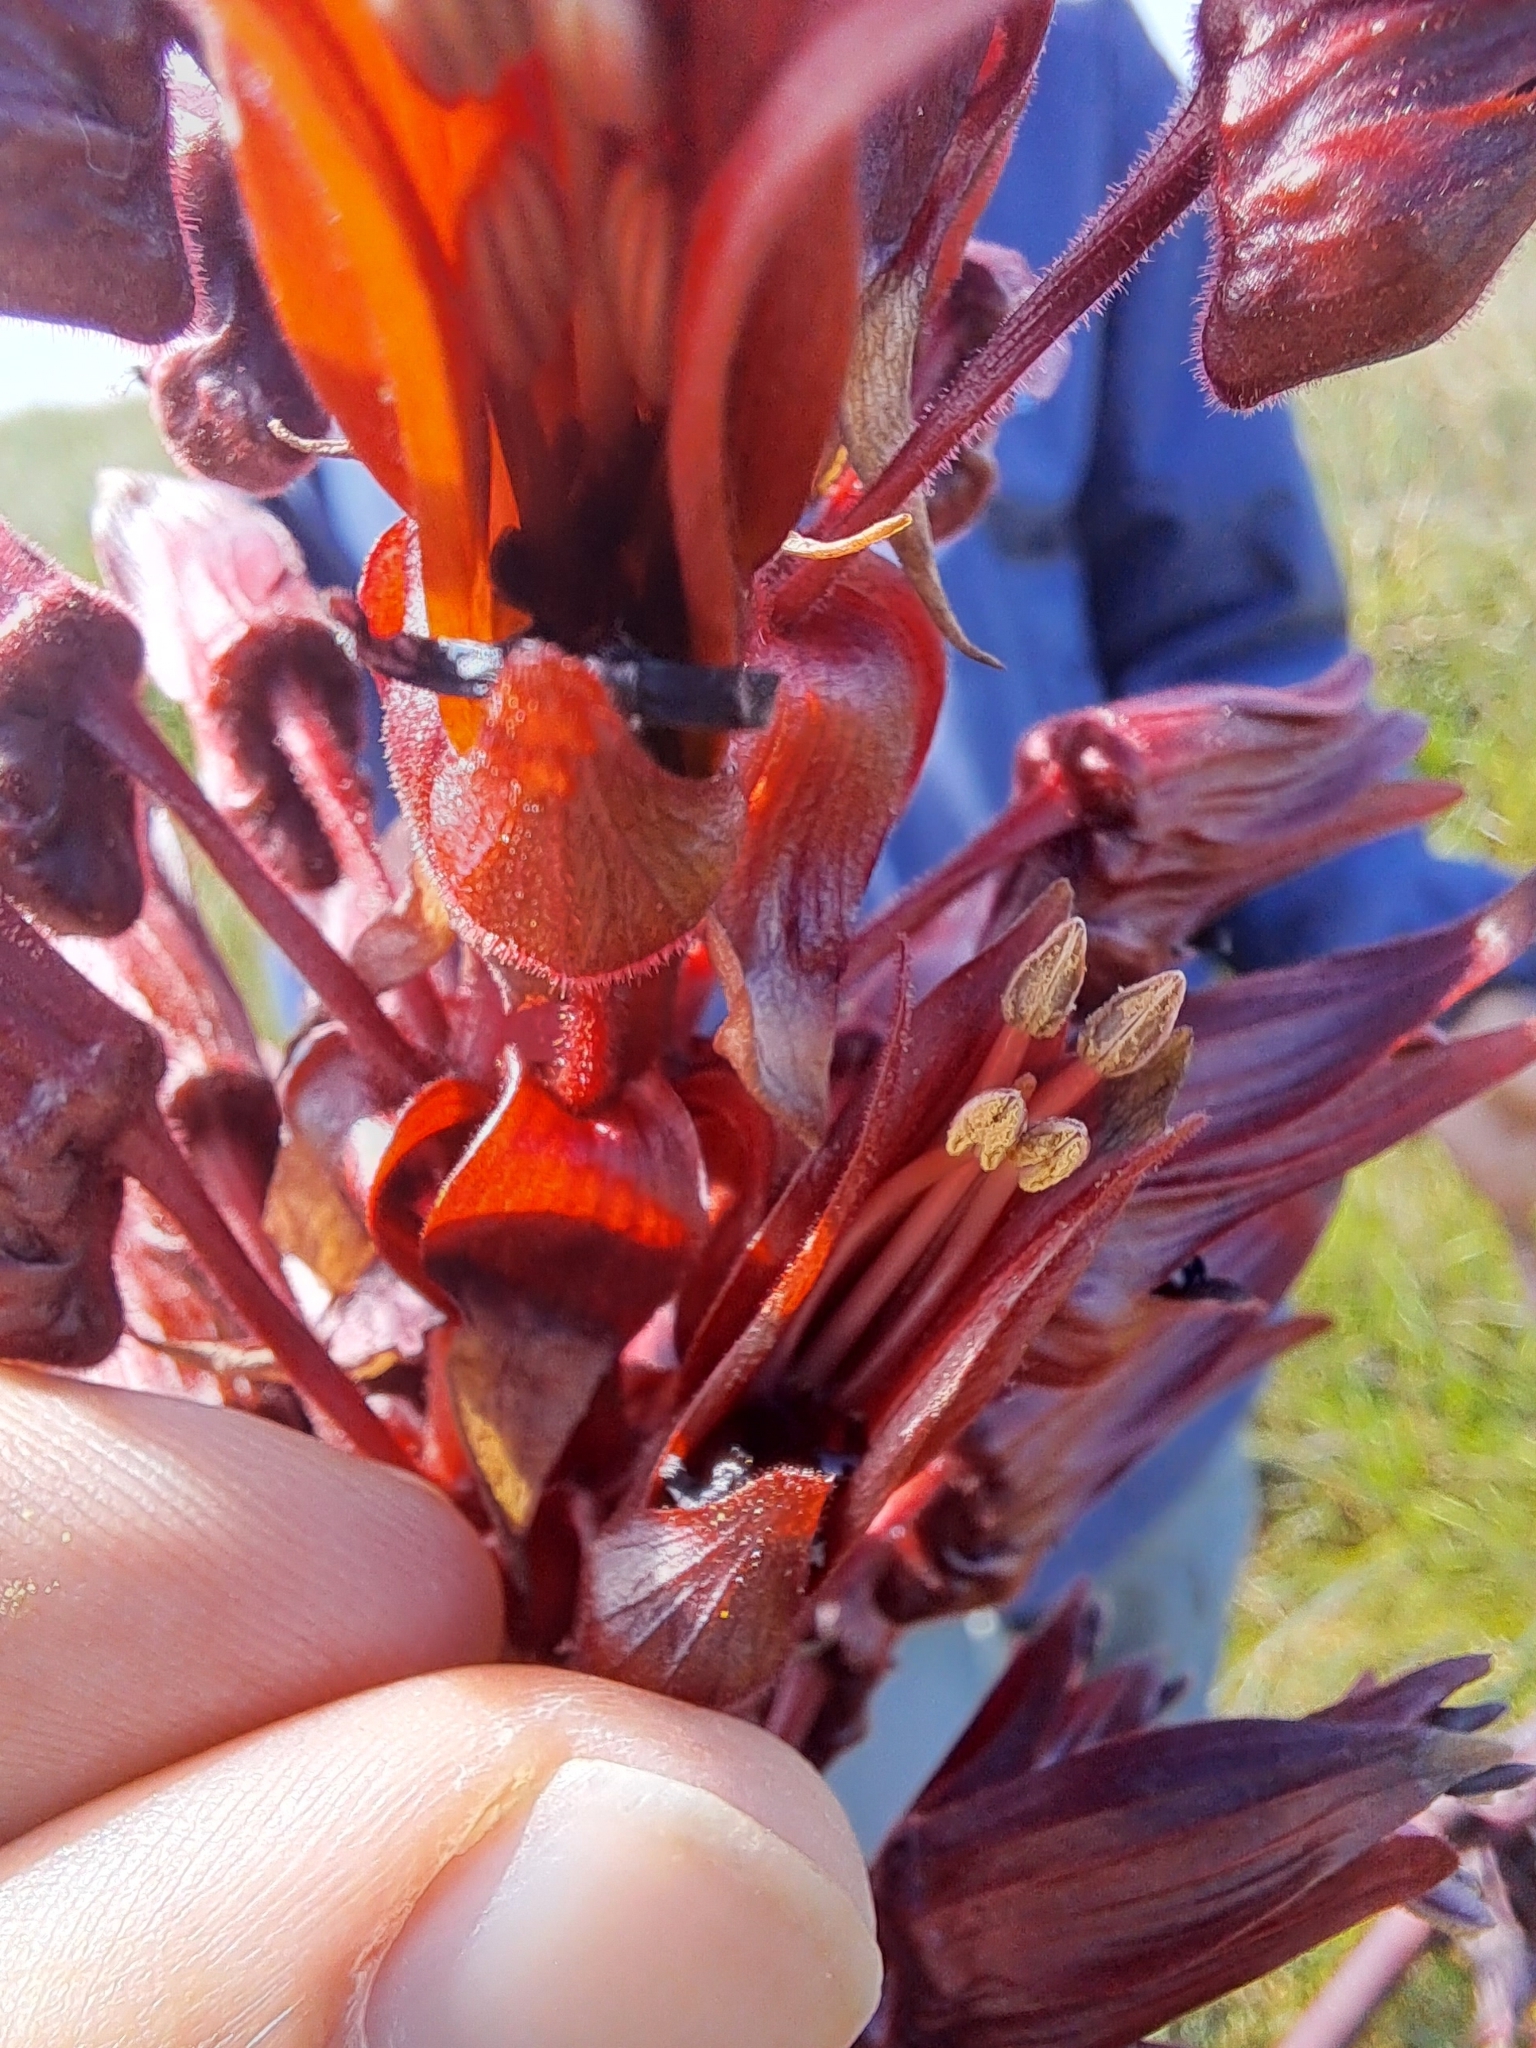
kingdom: Plantae
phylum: Tracheophyta
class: Magnoliopsida
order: Geraniales
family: Melianthaceae
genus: Melianthus
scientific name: Melianthus major
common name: Honey-flower
